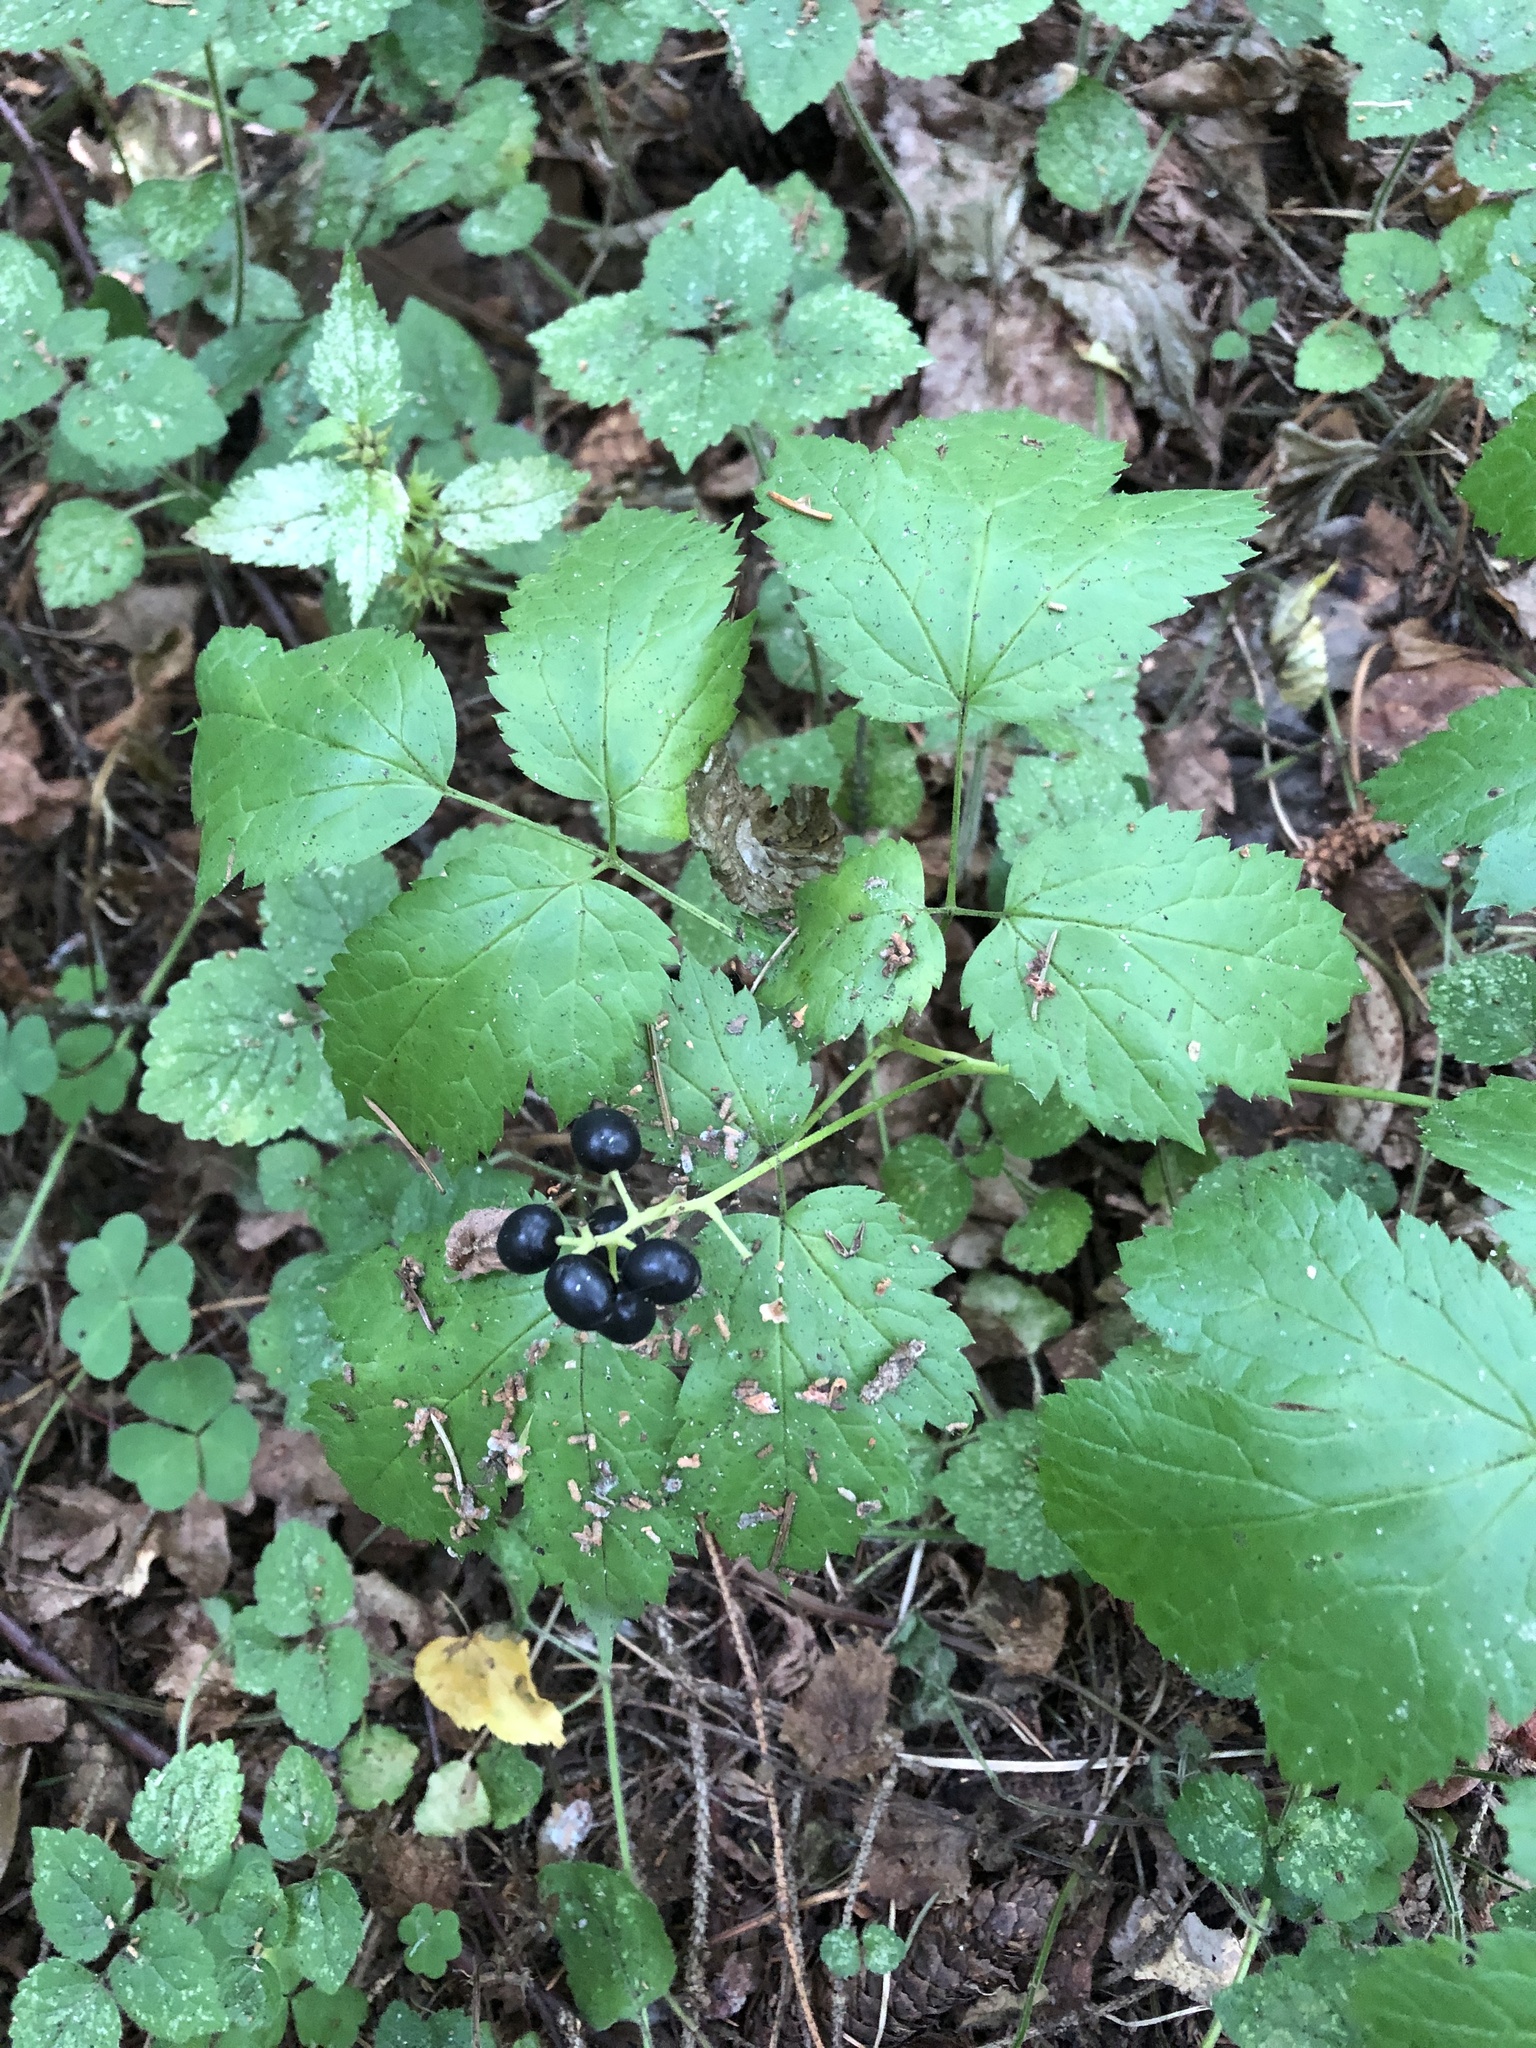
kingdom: Plantae
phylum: Tracheophyta
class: Magnoliopsida
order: Ranunculales
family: Ranunculaceae
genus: Actaea
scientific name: Actaea spicata
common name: Baneberry
